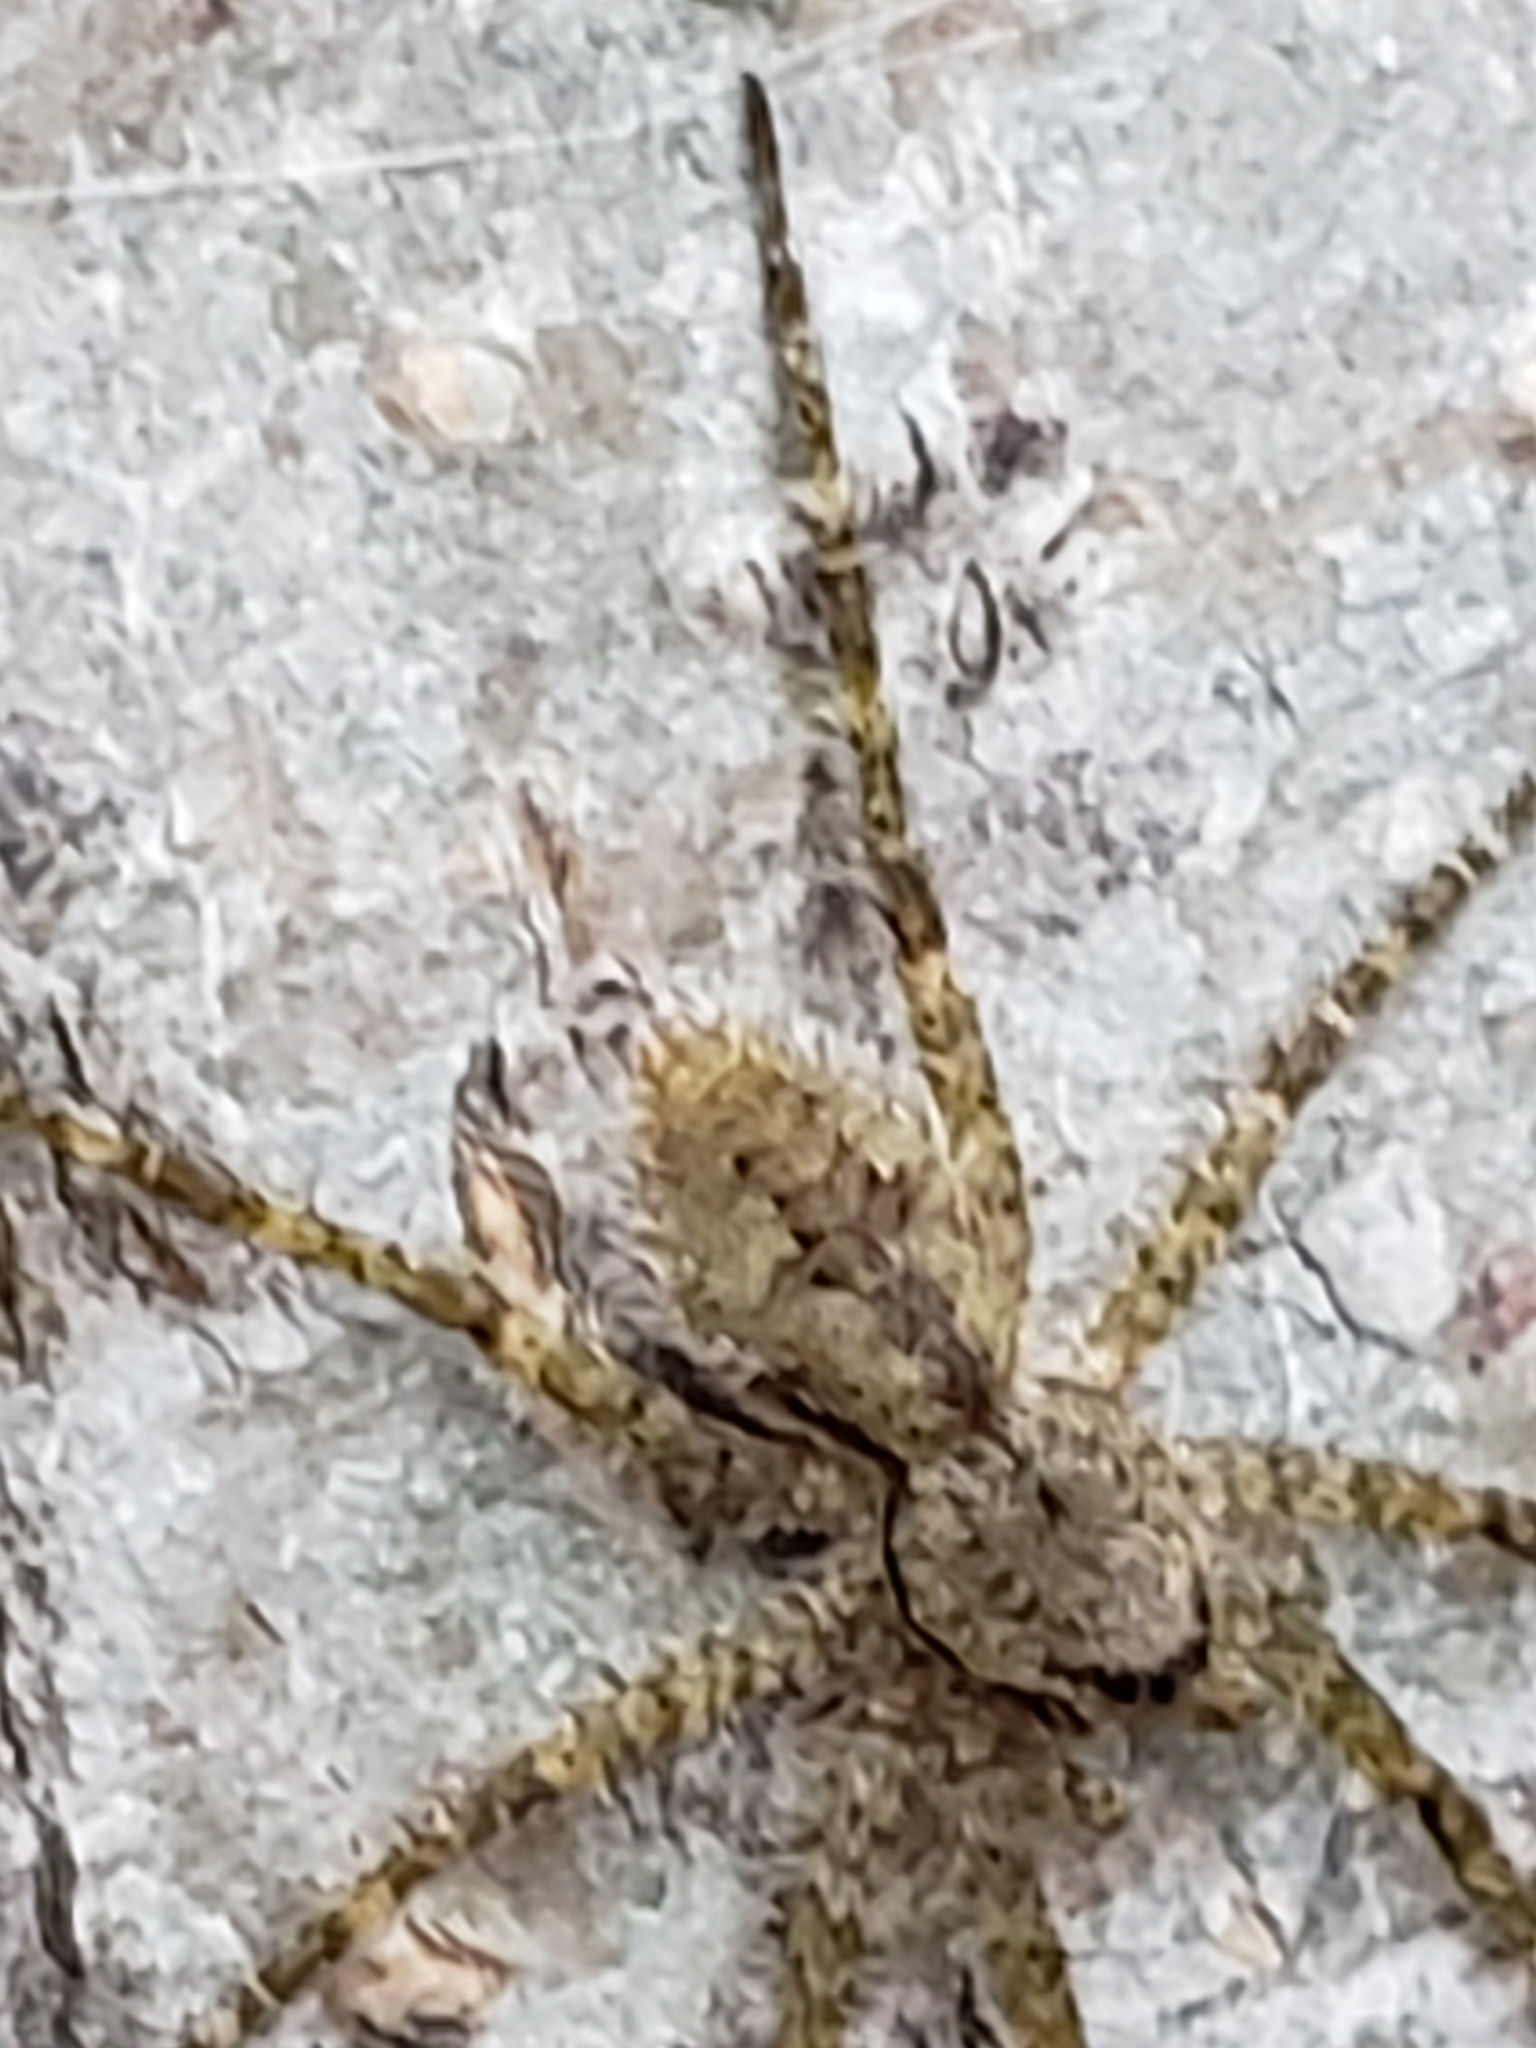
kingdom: Animalia
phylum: Arthropoda
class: Arachnida
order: Araneae
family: Pisauridae
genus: Dolomedes
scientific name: Dolomedes albineus
